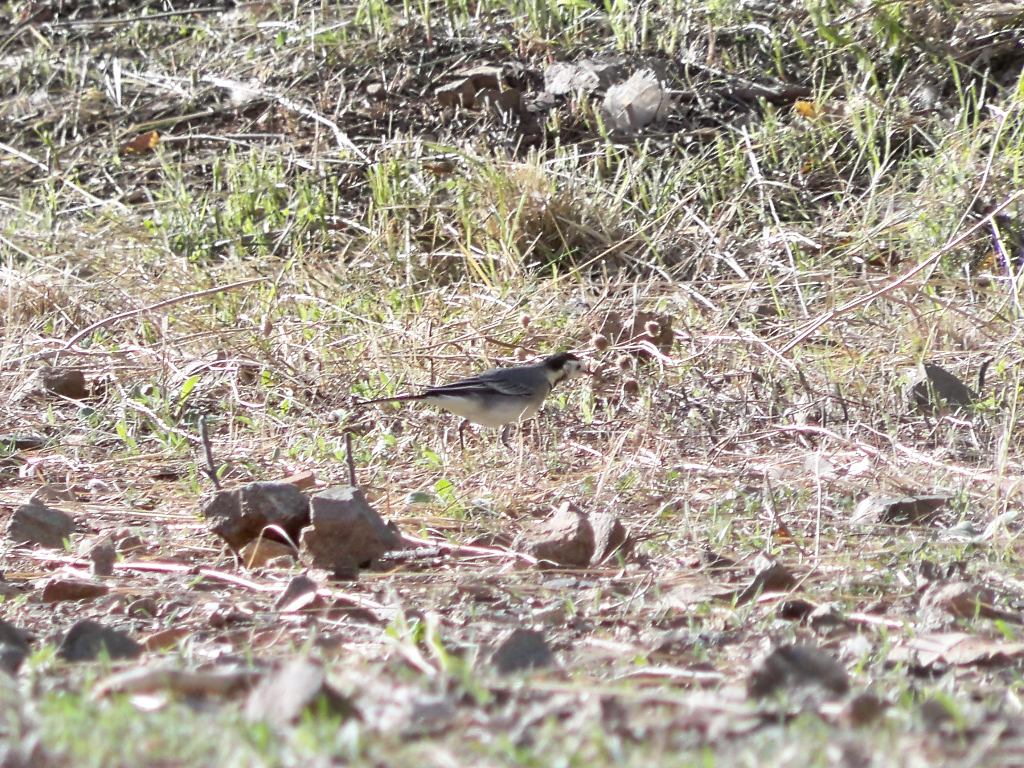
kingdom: Animalia
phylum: Chordata
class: Aves
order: Passeriformes
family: Motacillidae
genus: Motacilla
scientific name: Motacilla alba
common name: White wagtail
